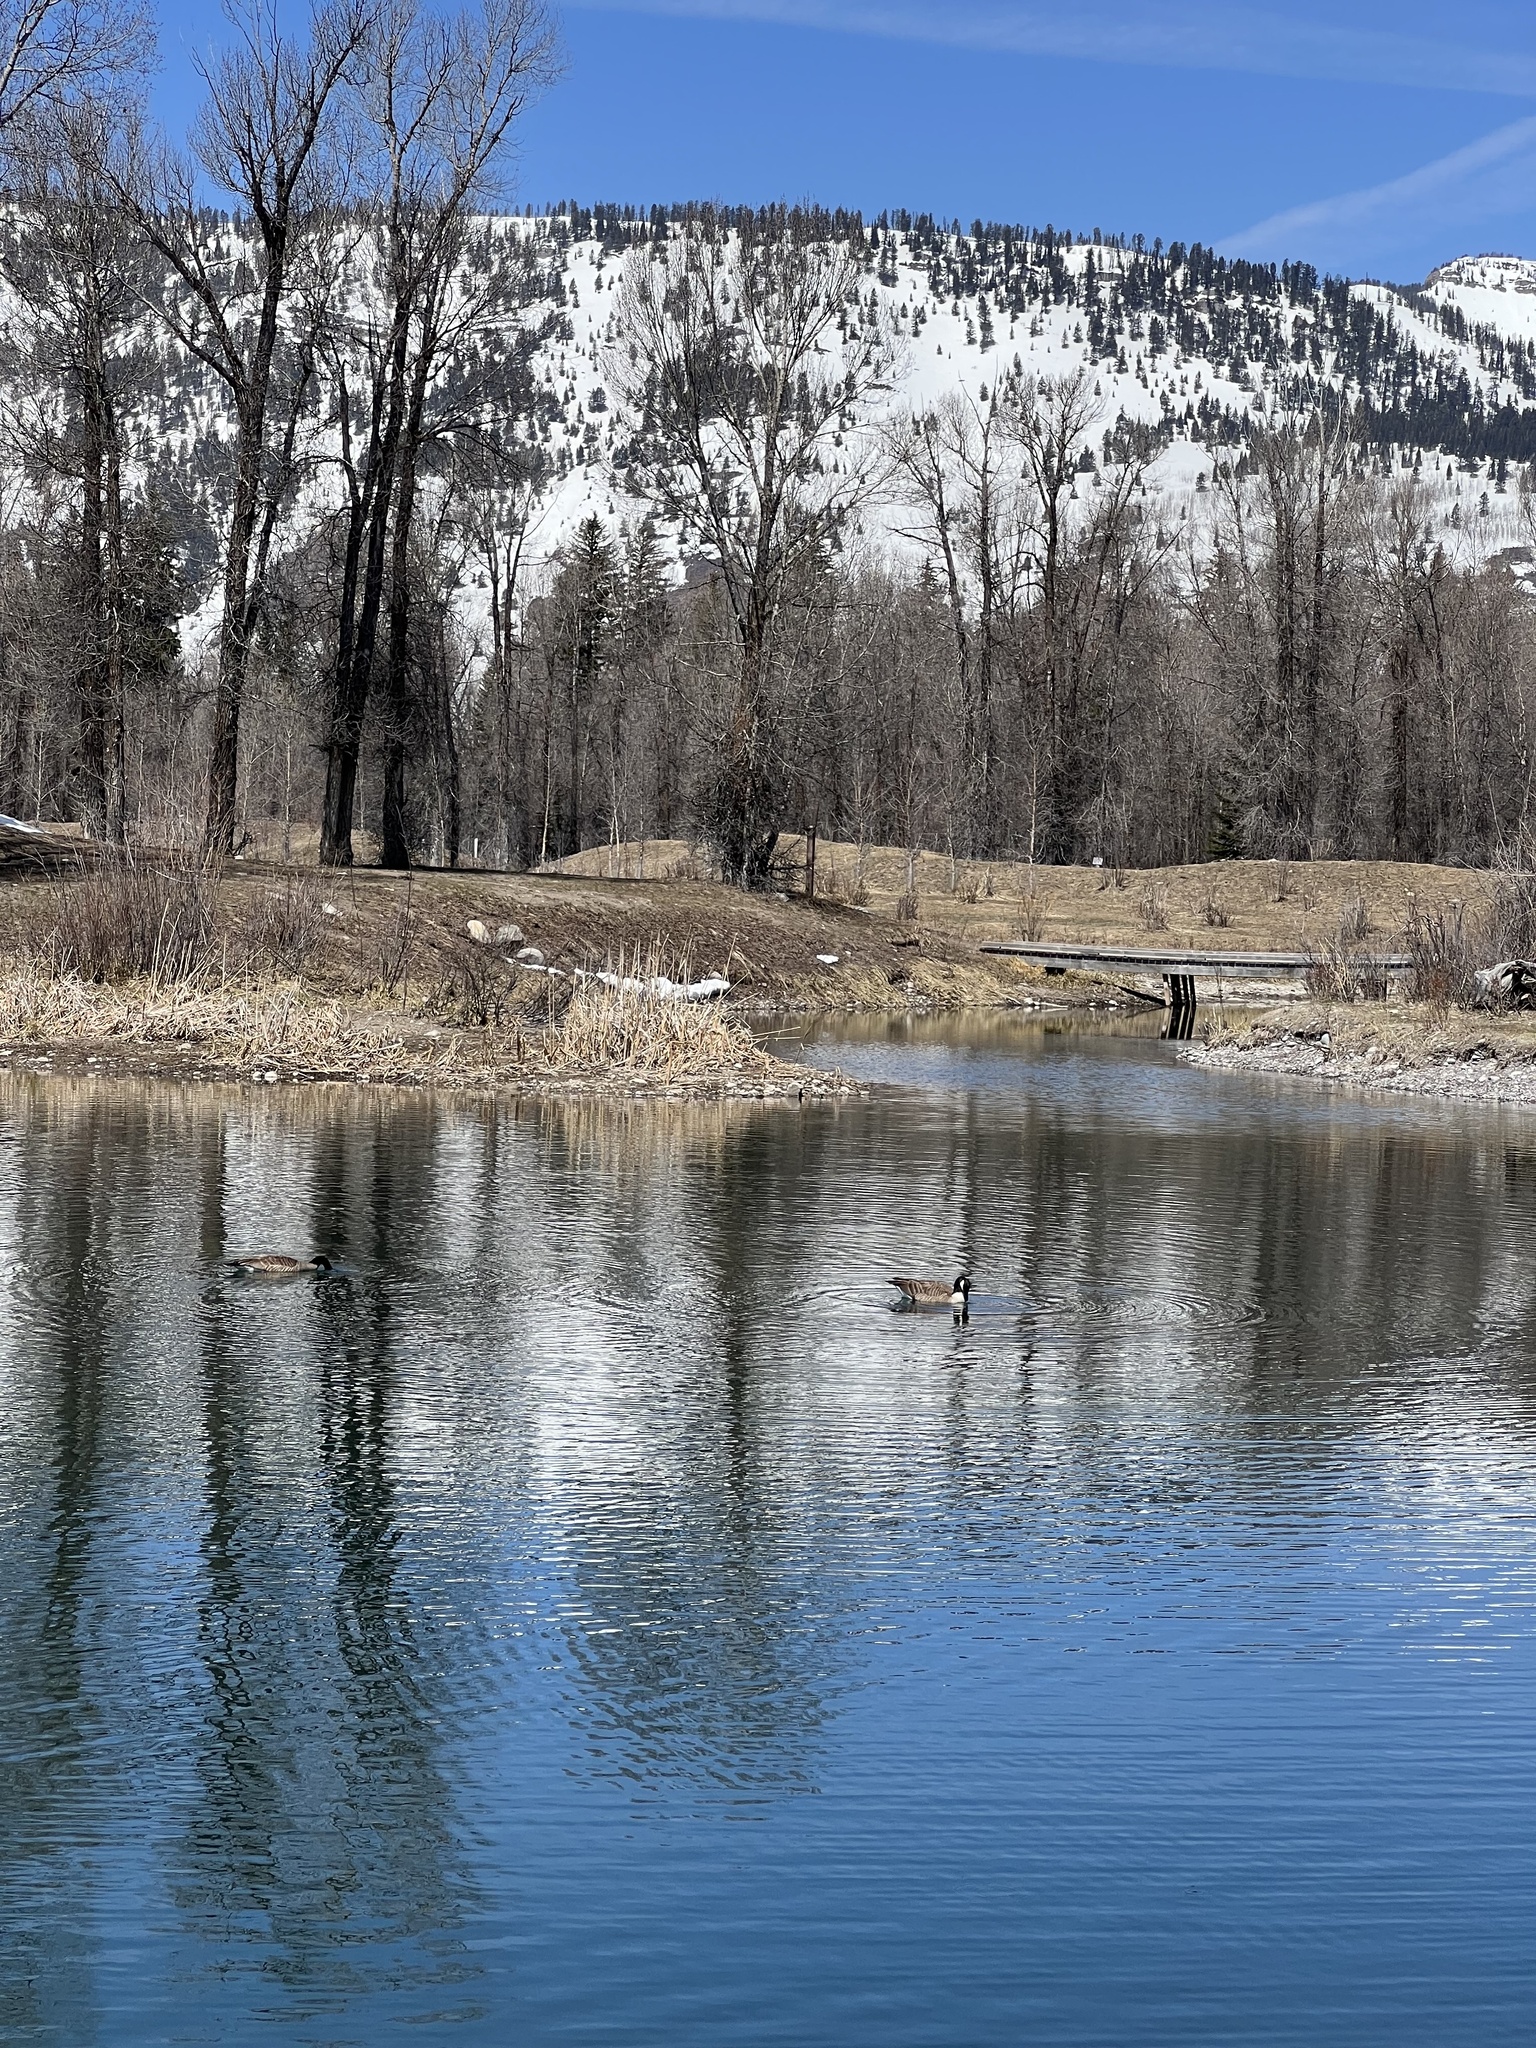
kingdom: Animalia
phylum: Chordata
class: Aves
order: Anseriformes
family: Anatidae
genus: Branta
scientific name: Branta canadensis
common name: Canada goose
